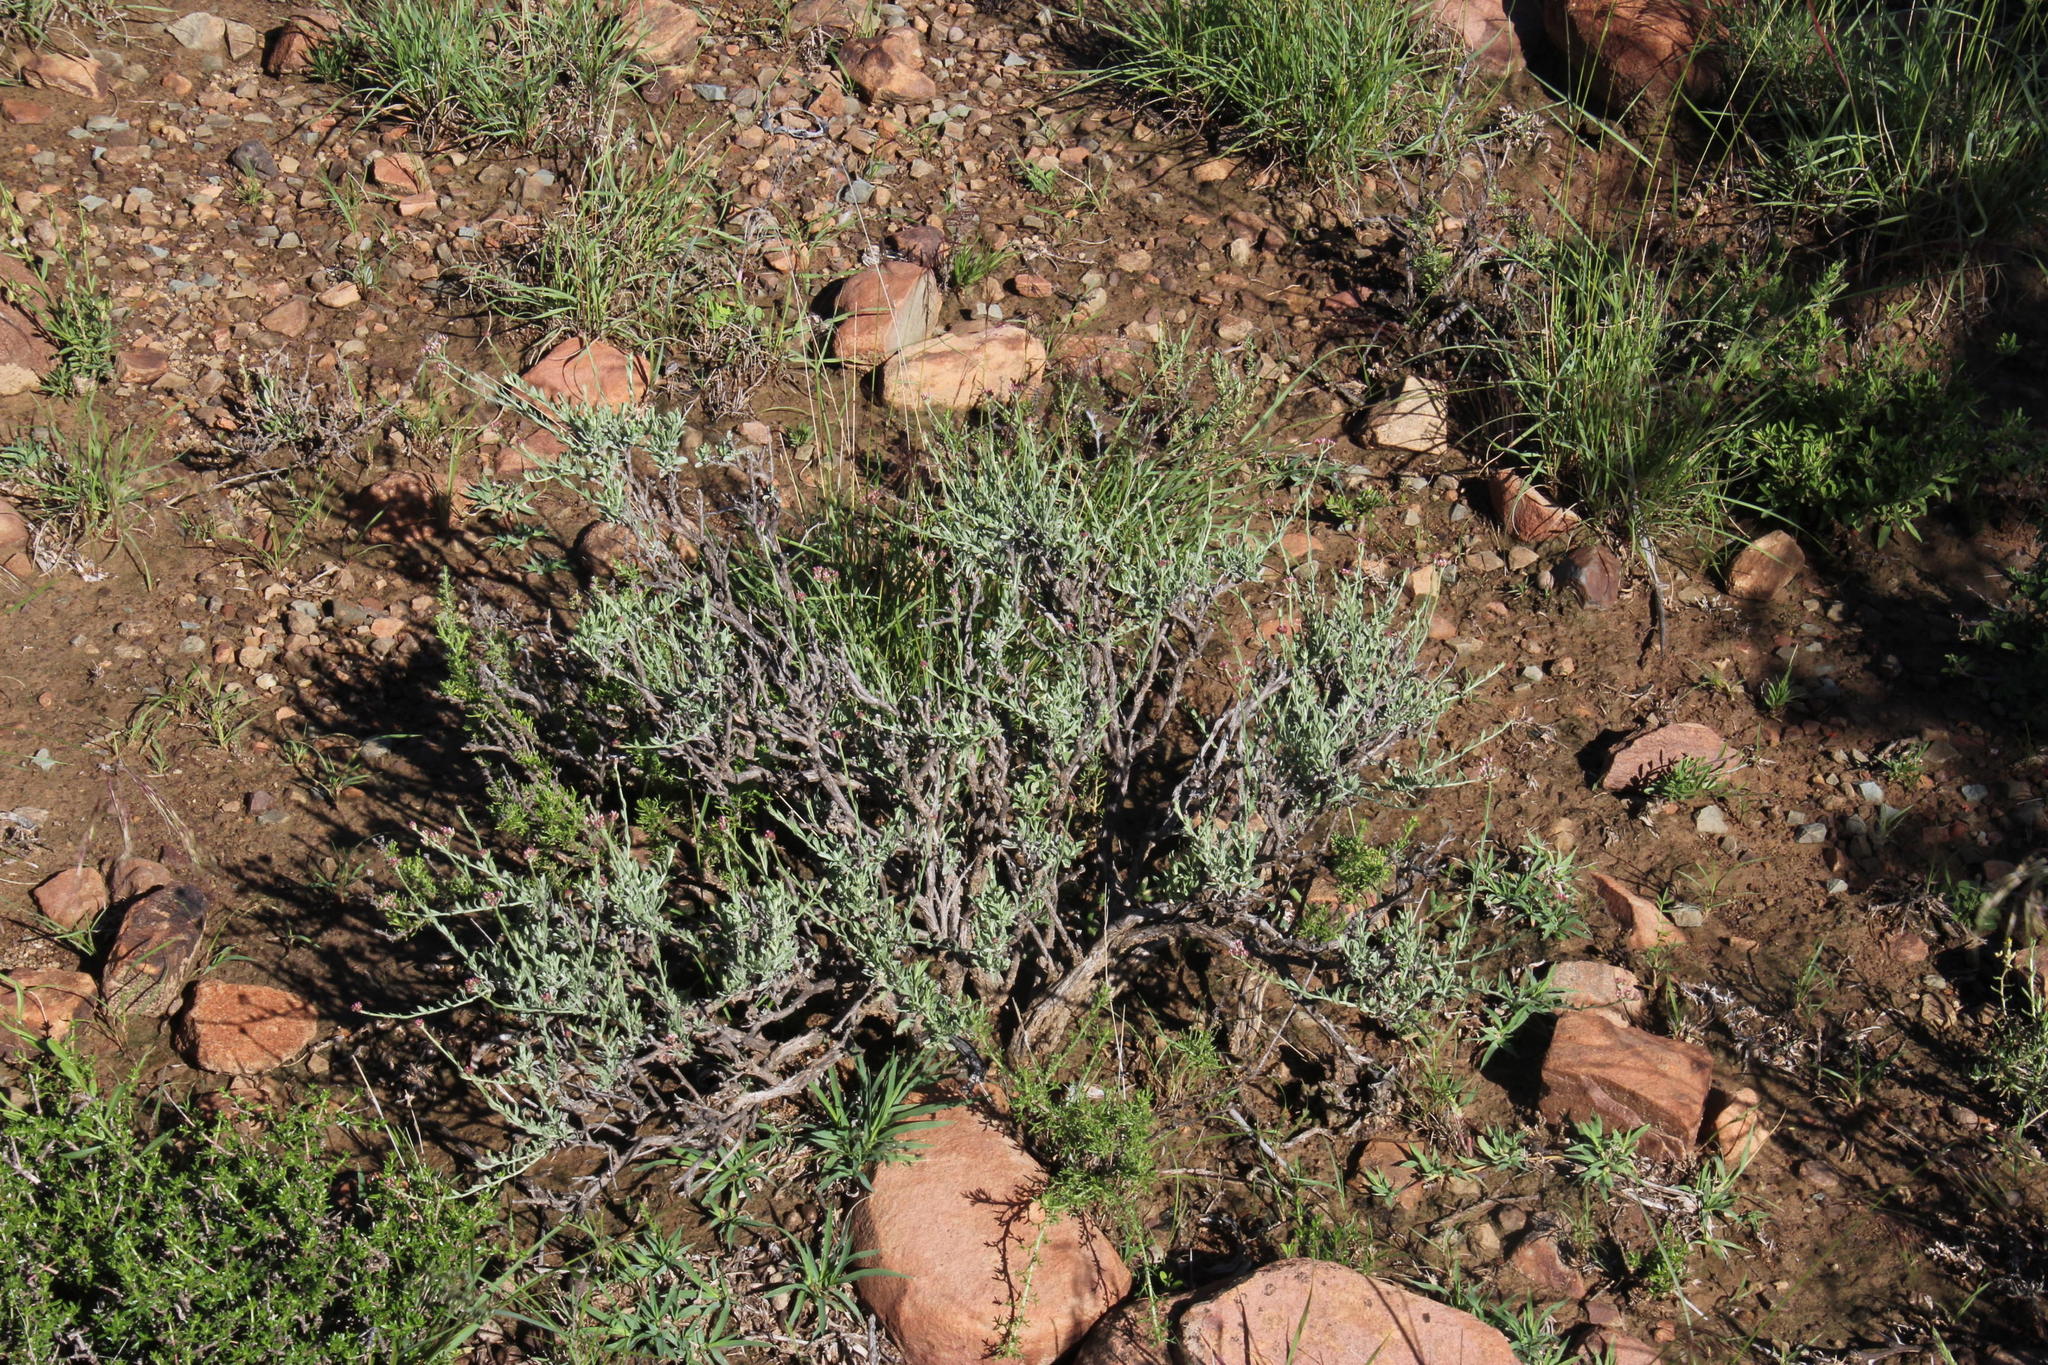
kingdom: Plantae
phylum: Tracheophyta
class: Magnoliopsida
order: Asterales
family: Asteraceae
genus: Helichrysum
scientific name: Helichrysum zeyheri
